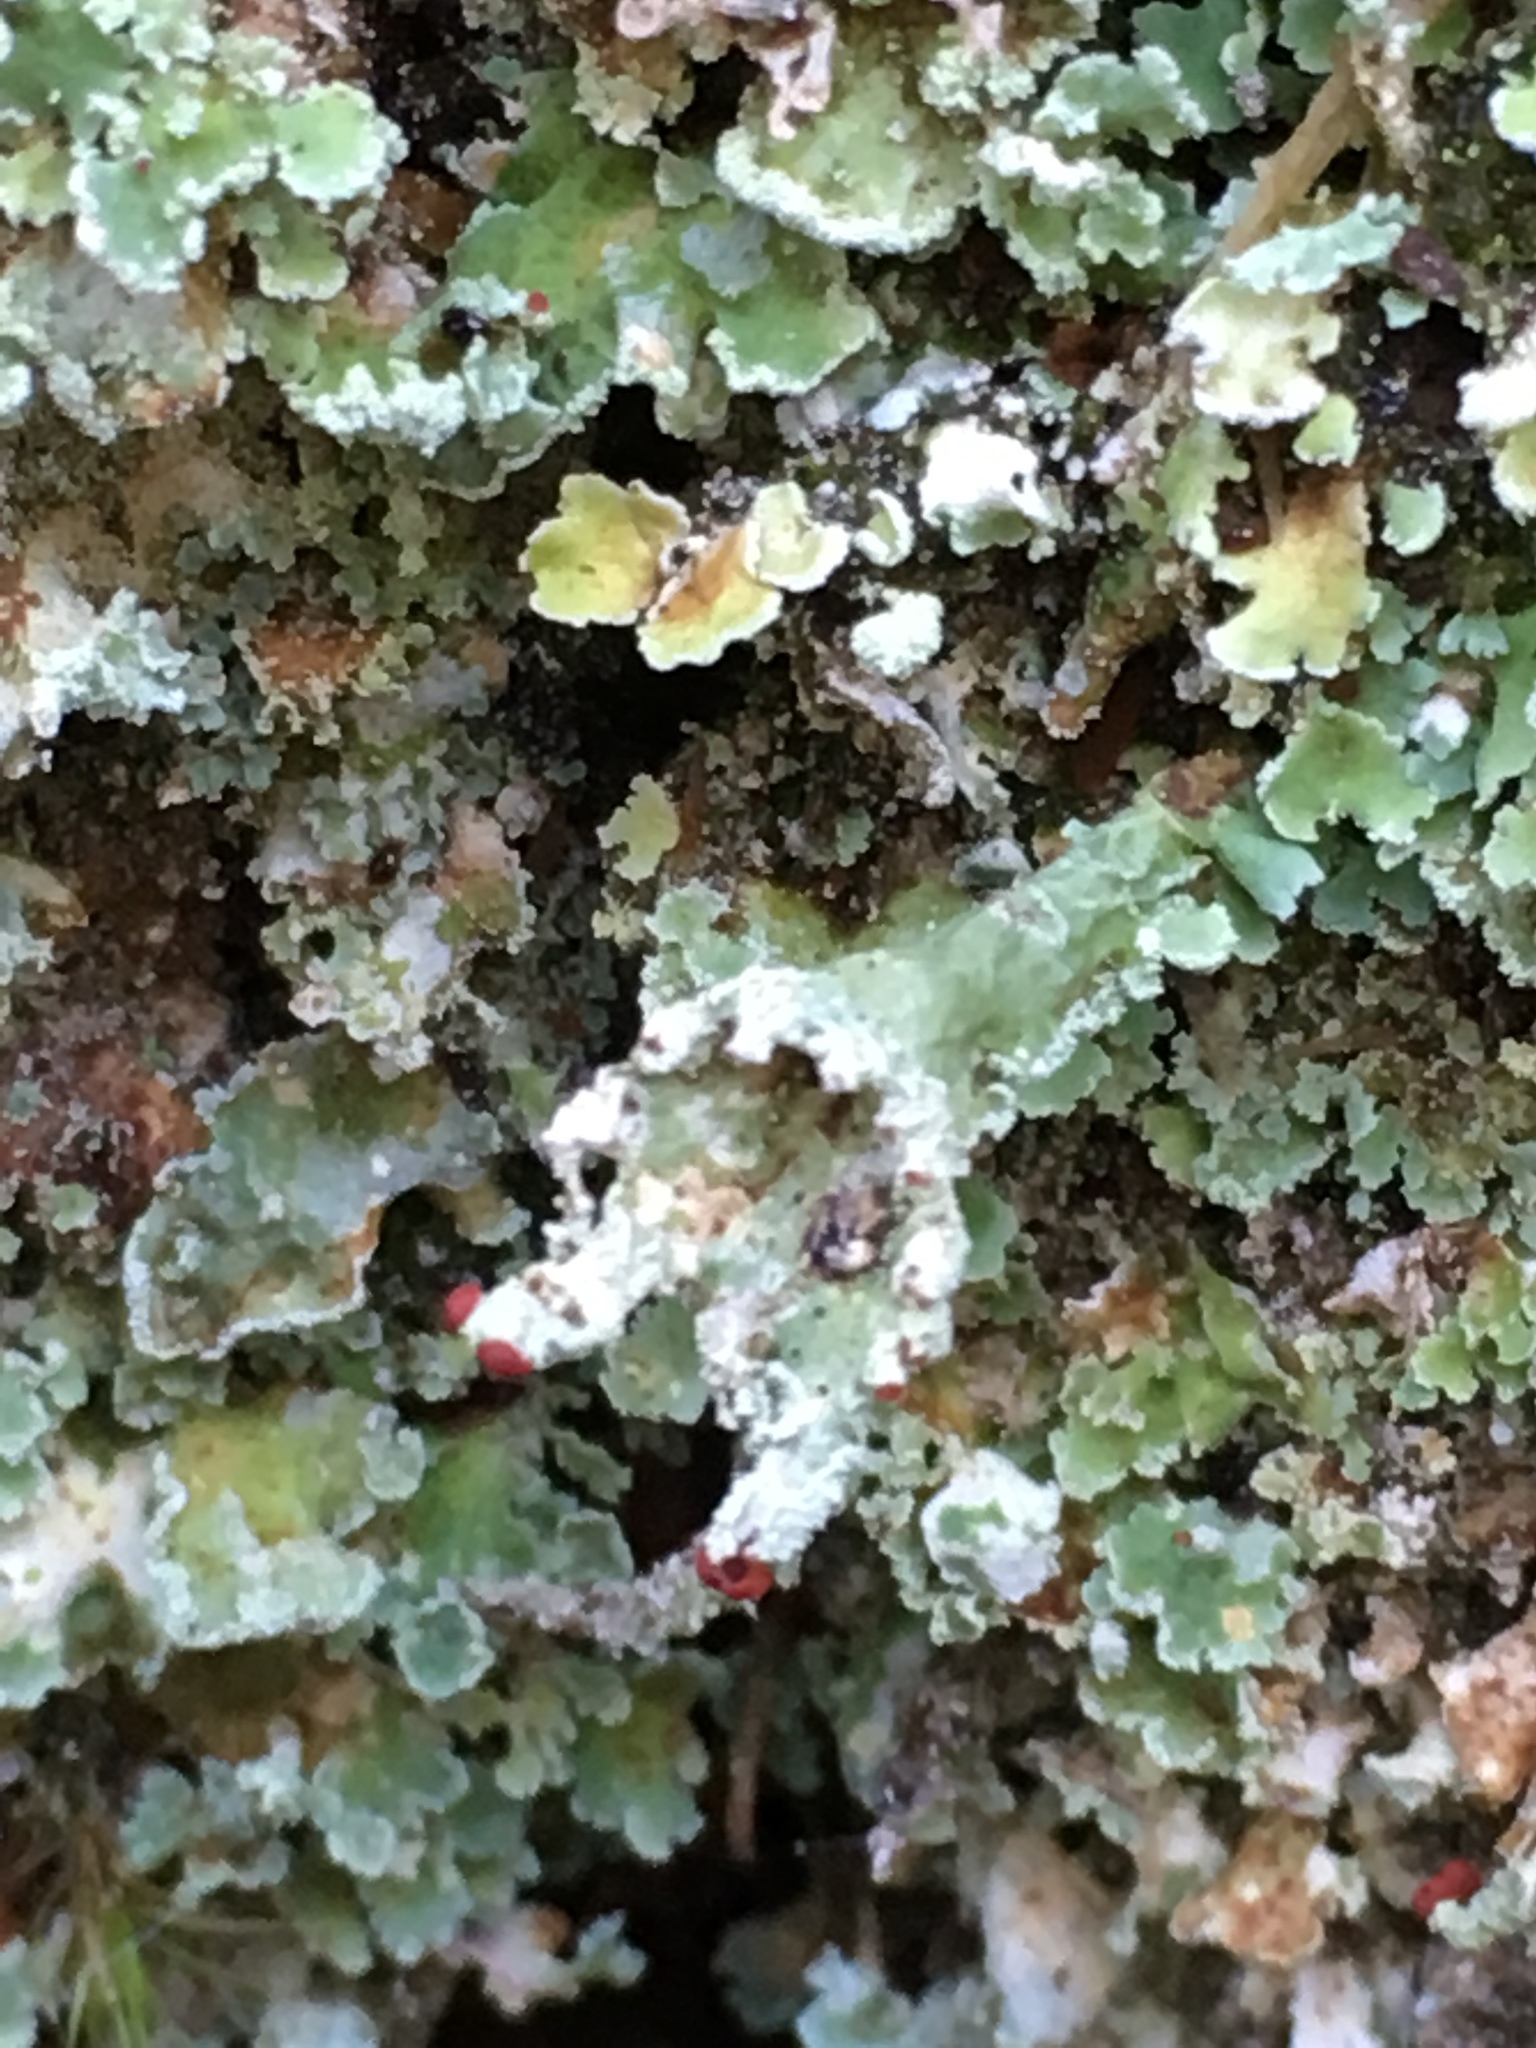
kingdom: Fungi
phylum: Ascomycota
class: Lecanoromycetes
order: Lecanorales
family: Cladoniaceae
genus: Cladonia
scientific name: Cladonia digitata
